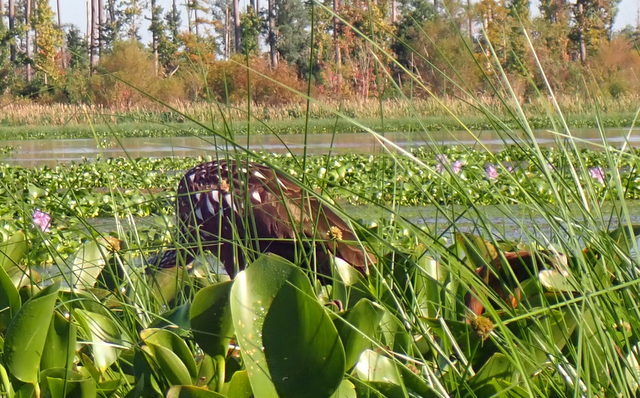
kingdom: Animalia
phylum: Chordata
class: Aves
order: Gruiformes
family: Aramidae
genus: Aramus
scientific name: Aramus guarauna
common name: Limpkin
